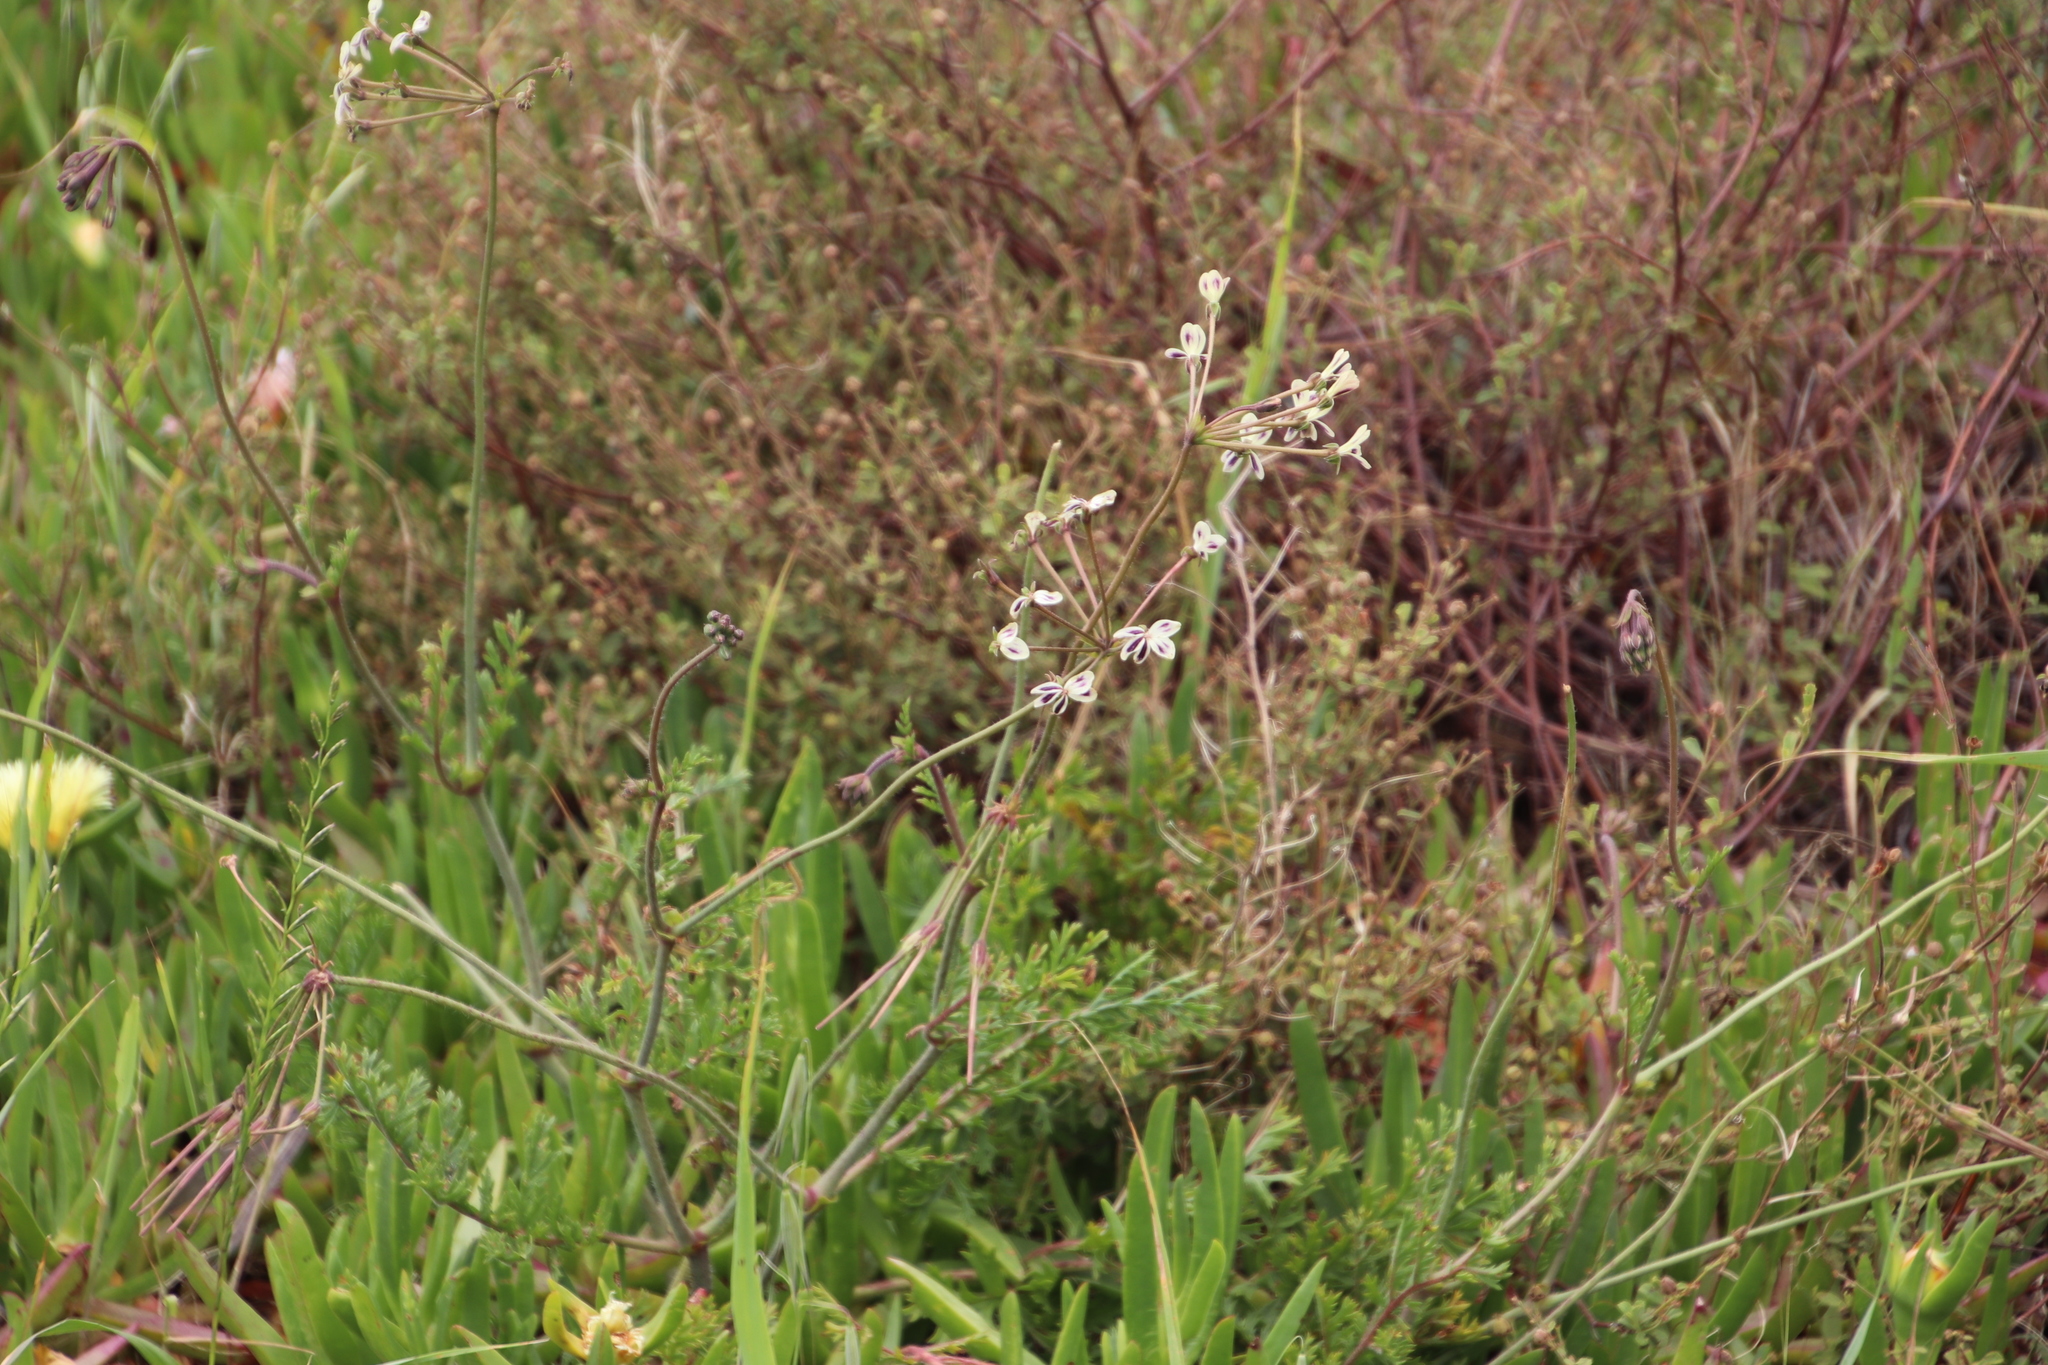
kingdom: Plantae
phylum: Tracheophyta
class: Magnoliopsida
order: Geraniales
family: Geraniaceae
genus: Pelargonium
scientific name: Pelargonium triste
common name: Night-scent pelargonium
